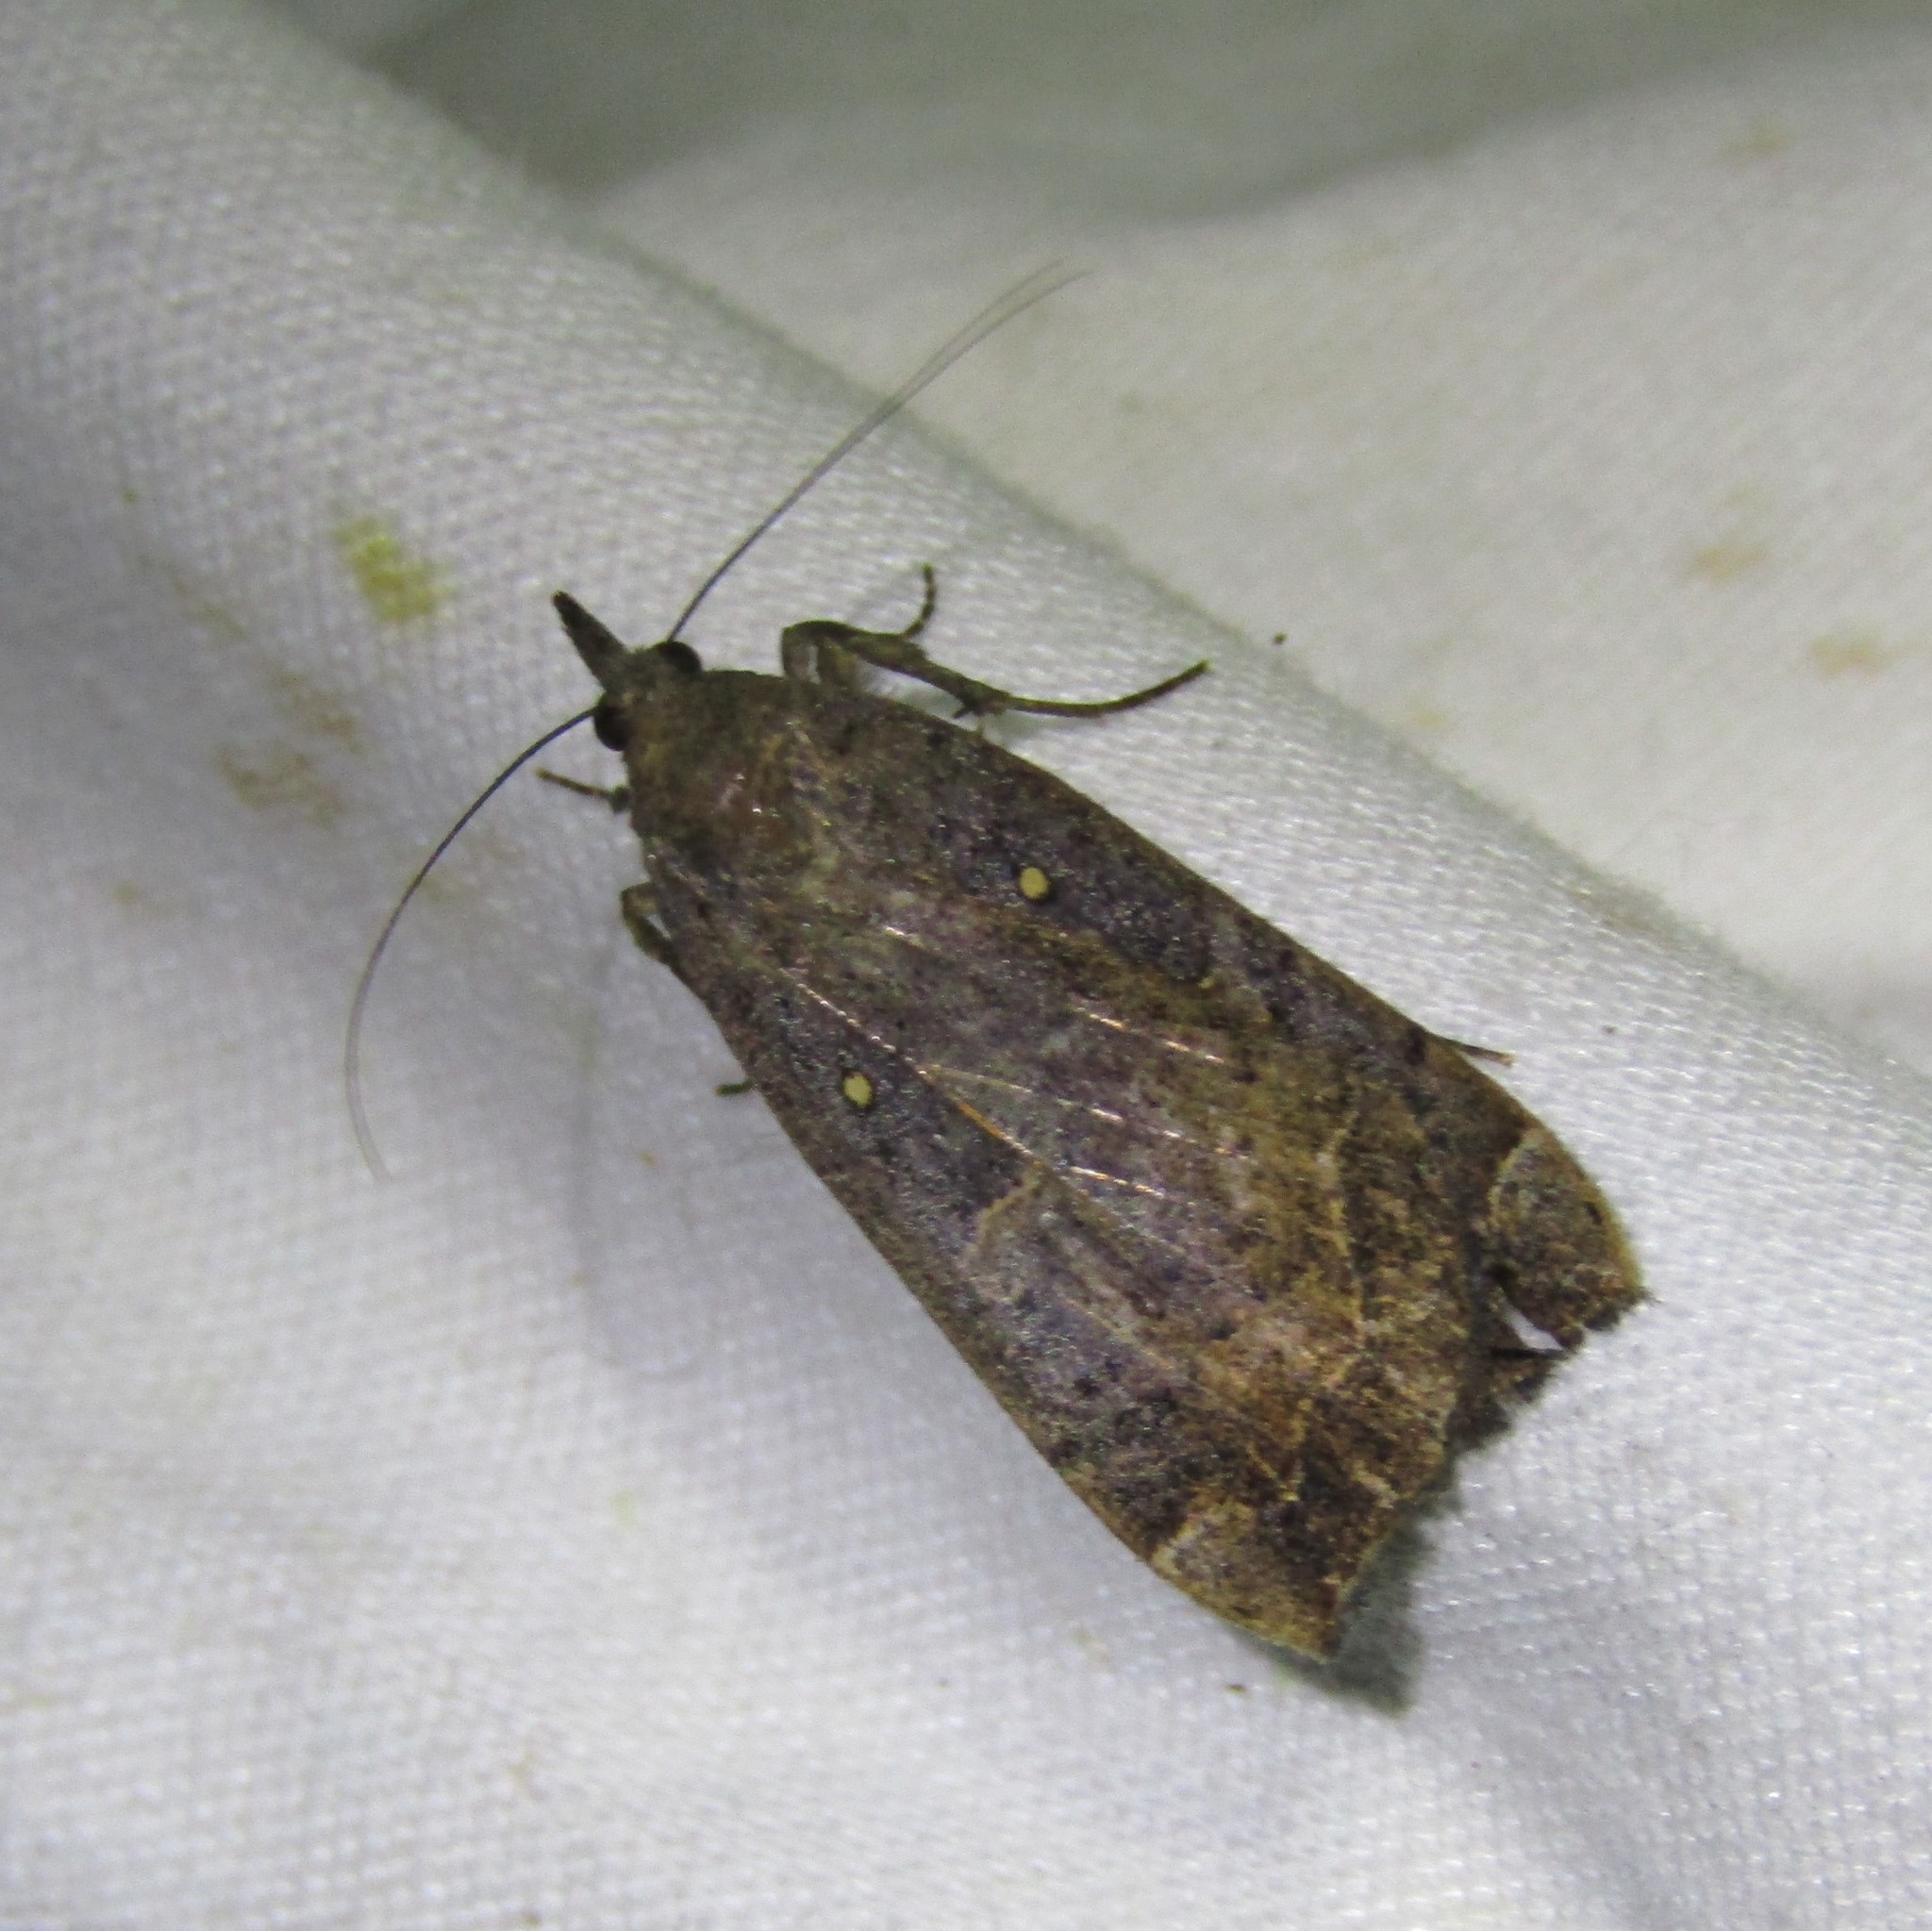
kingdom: Animalia
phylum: Arthropoda
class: Insecta
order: Lepidoptera
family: Erebidae
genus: Rhapsa
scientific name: Rhapsa scotosialis
